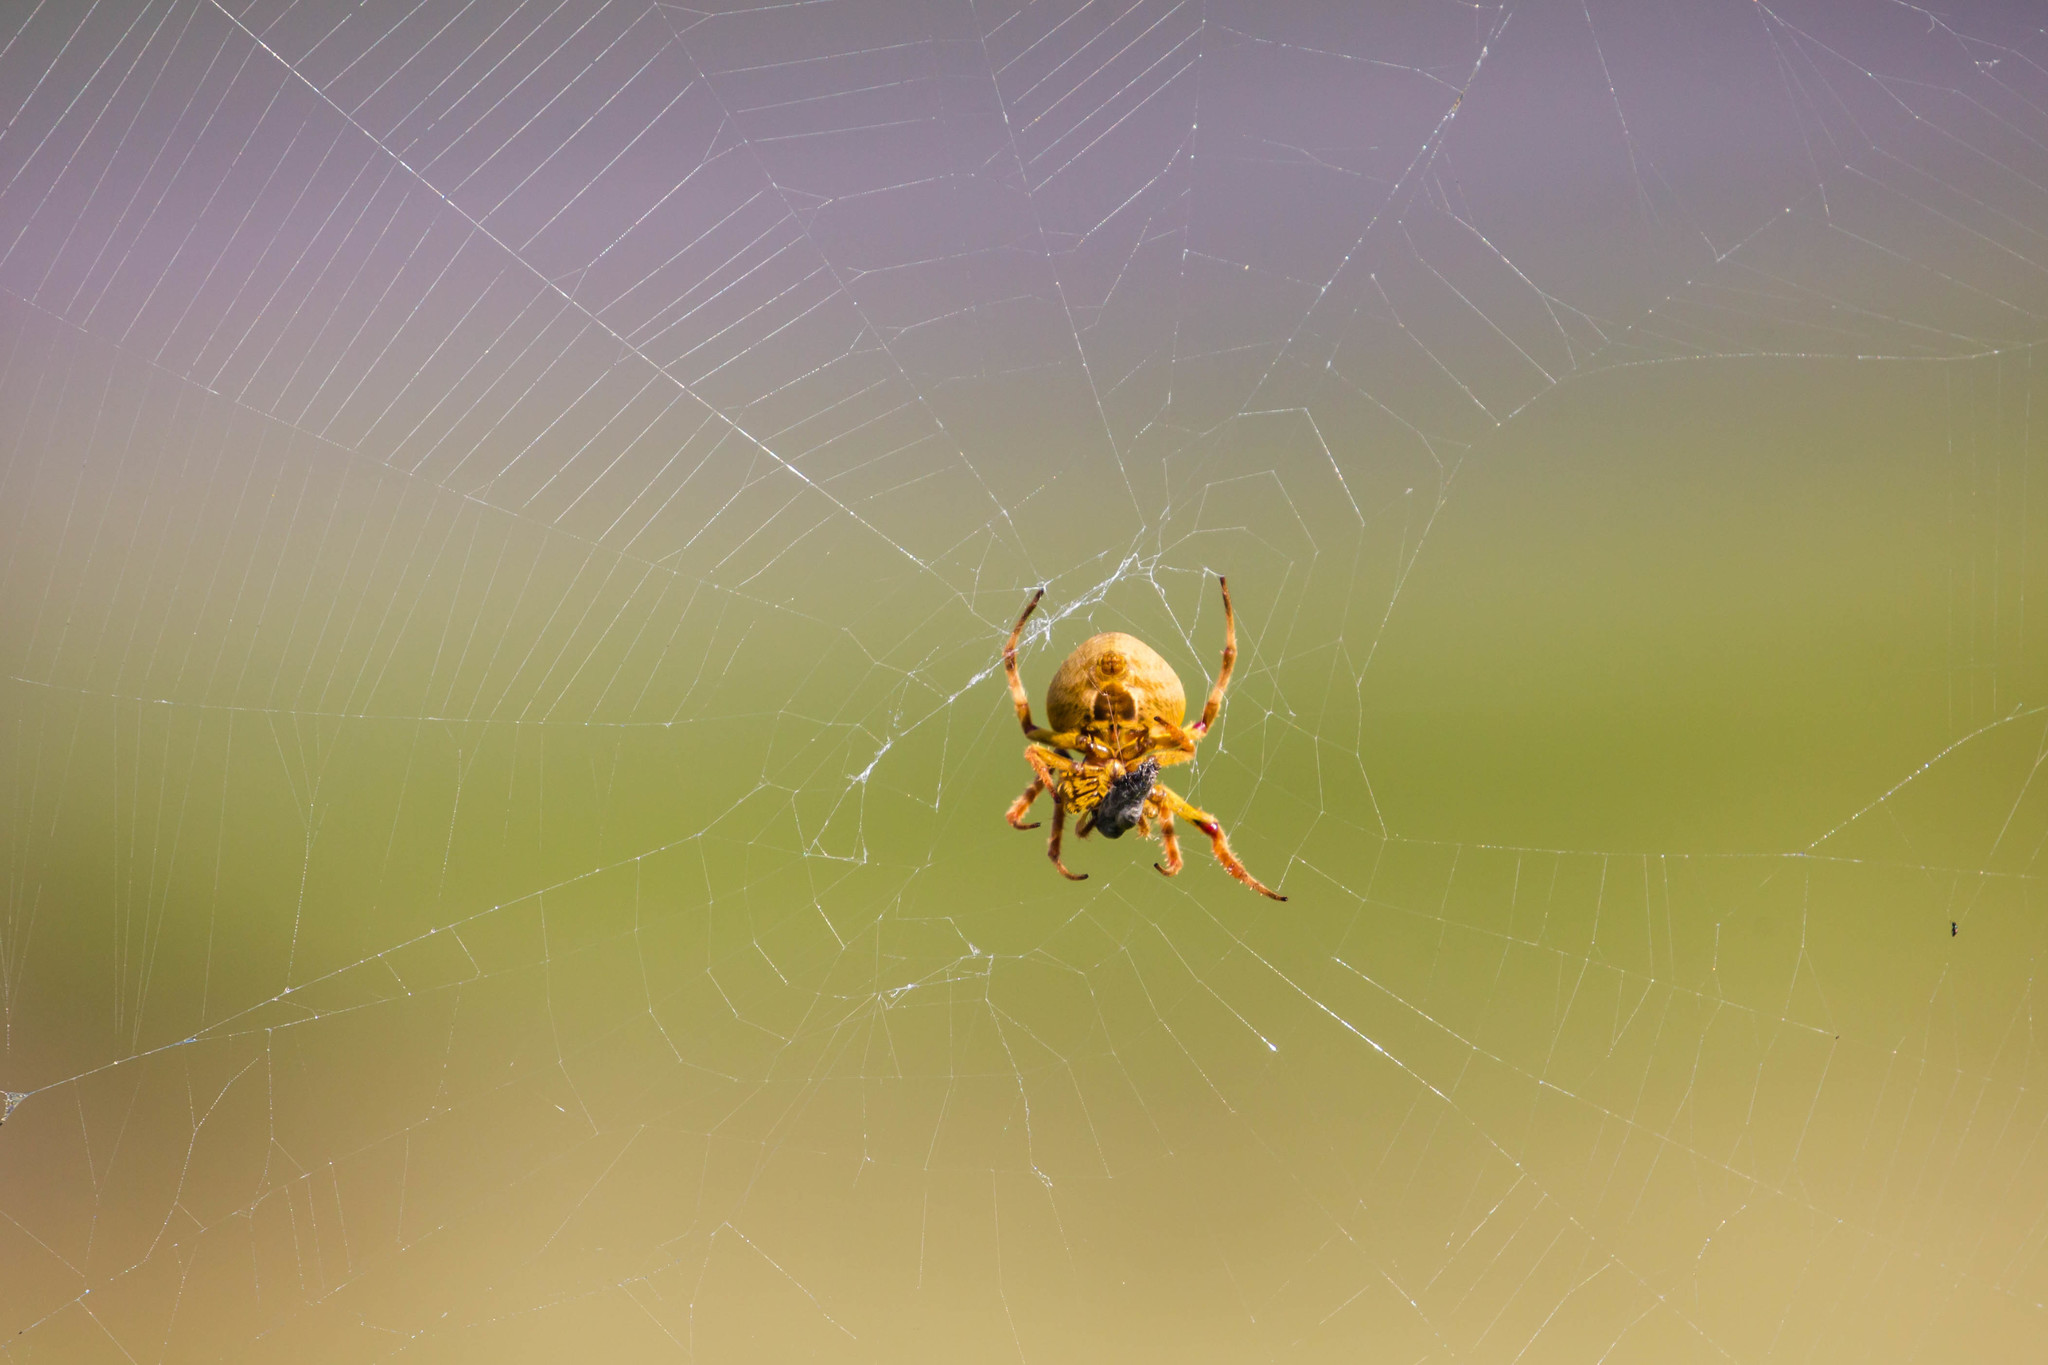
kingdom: Animalia
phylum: Arthropoda
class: Arachnida
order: Araneae
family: Araneidae
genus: Eriophora
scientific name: Eriophora ravilla
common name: Orb weavers
